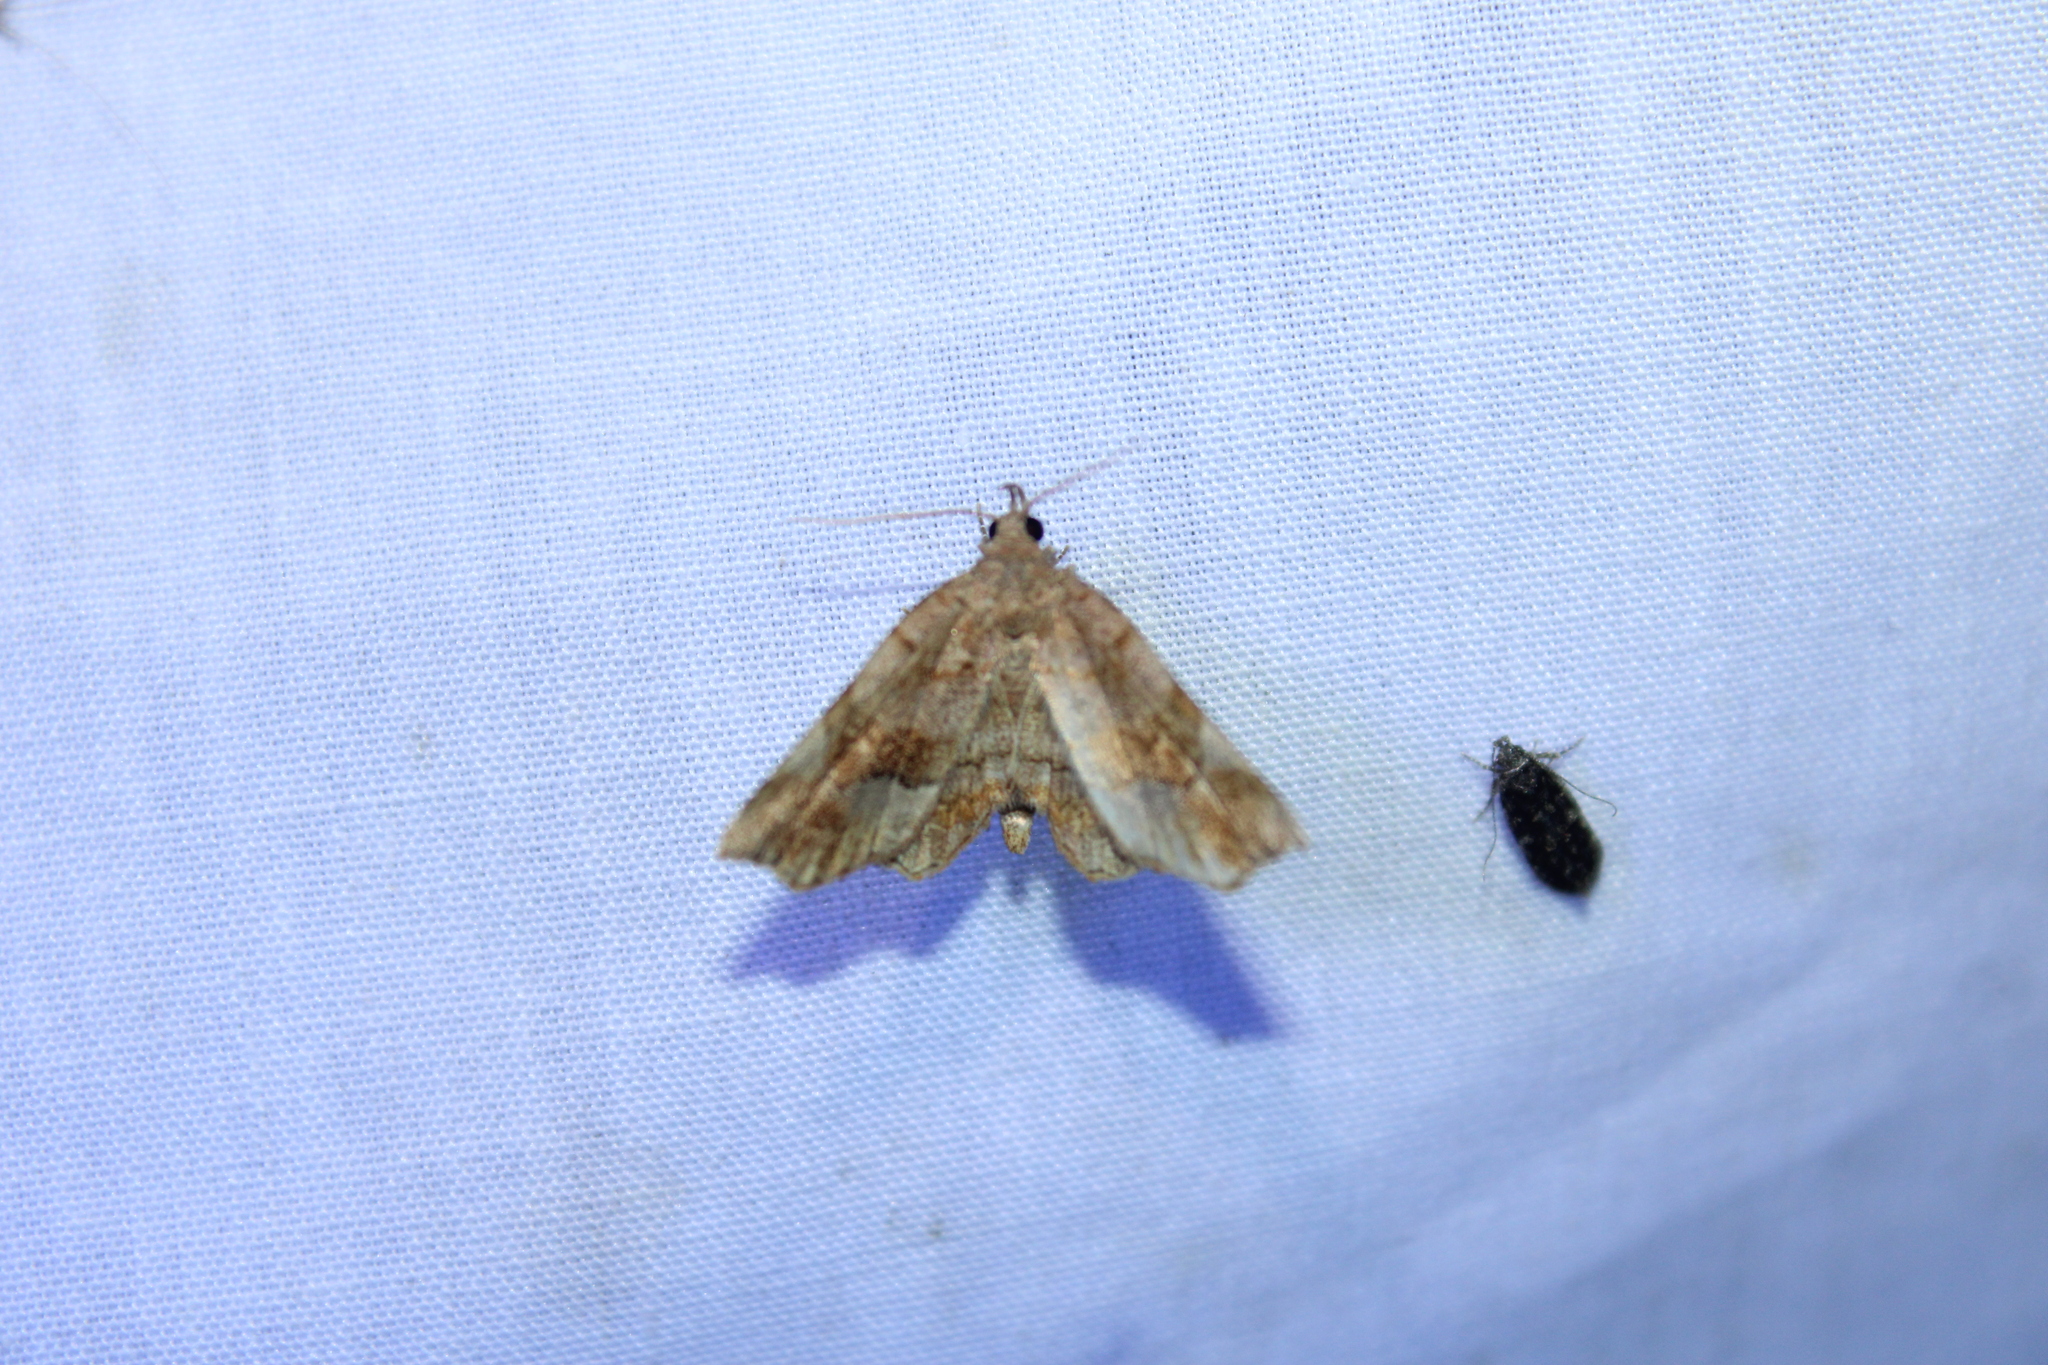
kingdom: Animalia
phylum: Arthropoda
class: Insecta
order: Lepidoptera
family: Erebidae
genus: Pangrapta
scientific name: Pangrapta decoralis
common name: Decorated owlet
